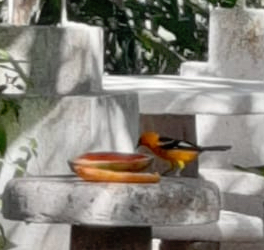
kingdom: Animalia
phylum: Chordata
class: Aves
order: Passeriformes
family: Icteridae
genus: Icterus
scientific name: Icterus pectoralis
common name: Spot-breasted oriole
